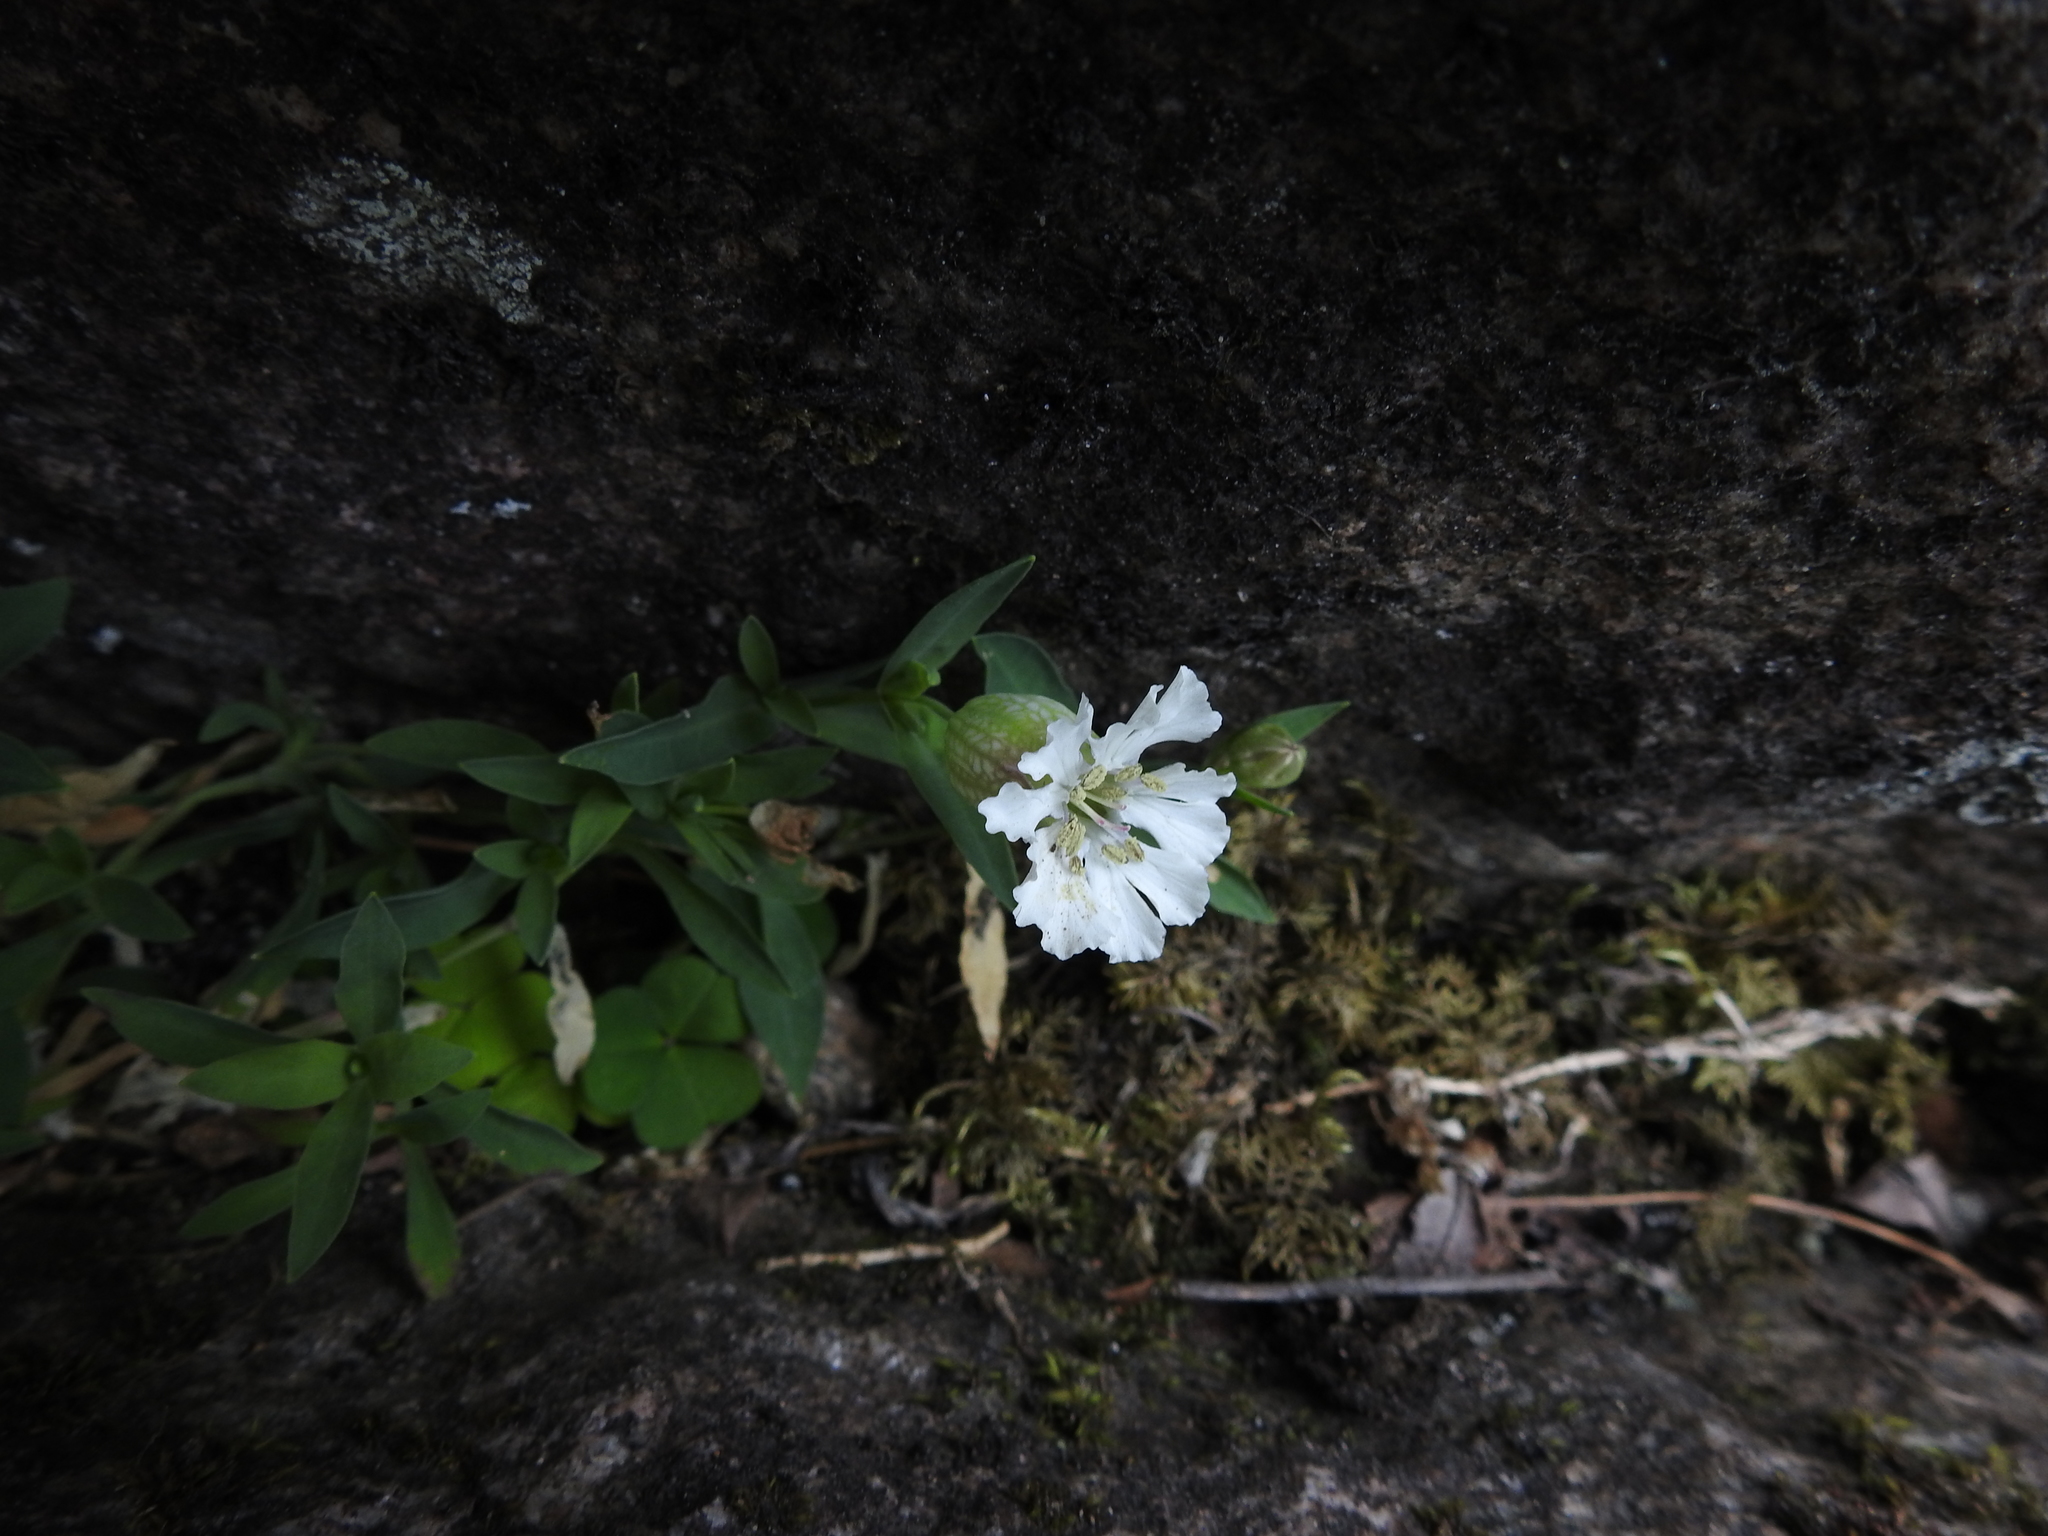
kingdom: Plantae
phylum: Tracheophyta
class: Magnoliopsida
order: Caryophyllales
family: Caryophyllaceae
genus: Silene
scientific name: Silene uniflora
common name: Sea campion
